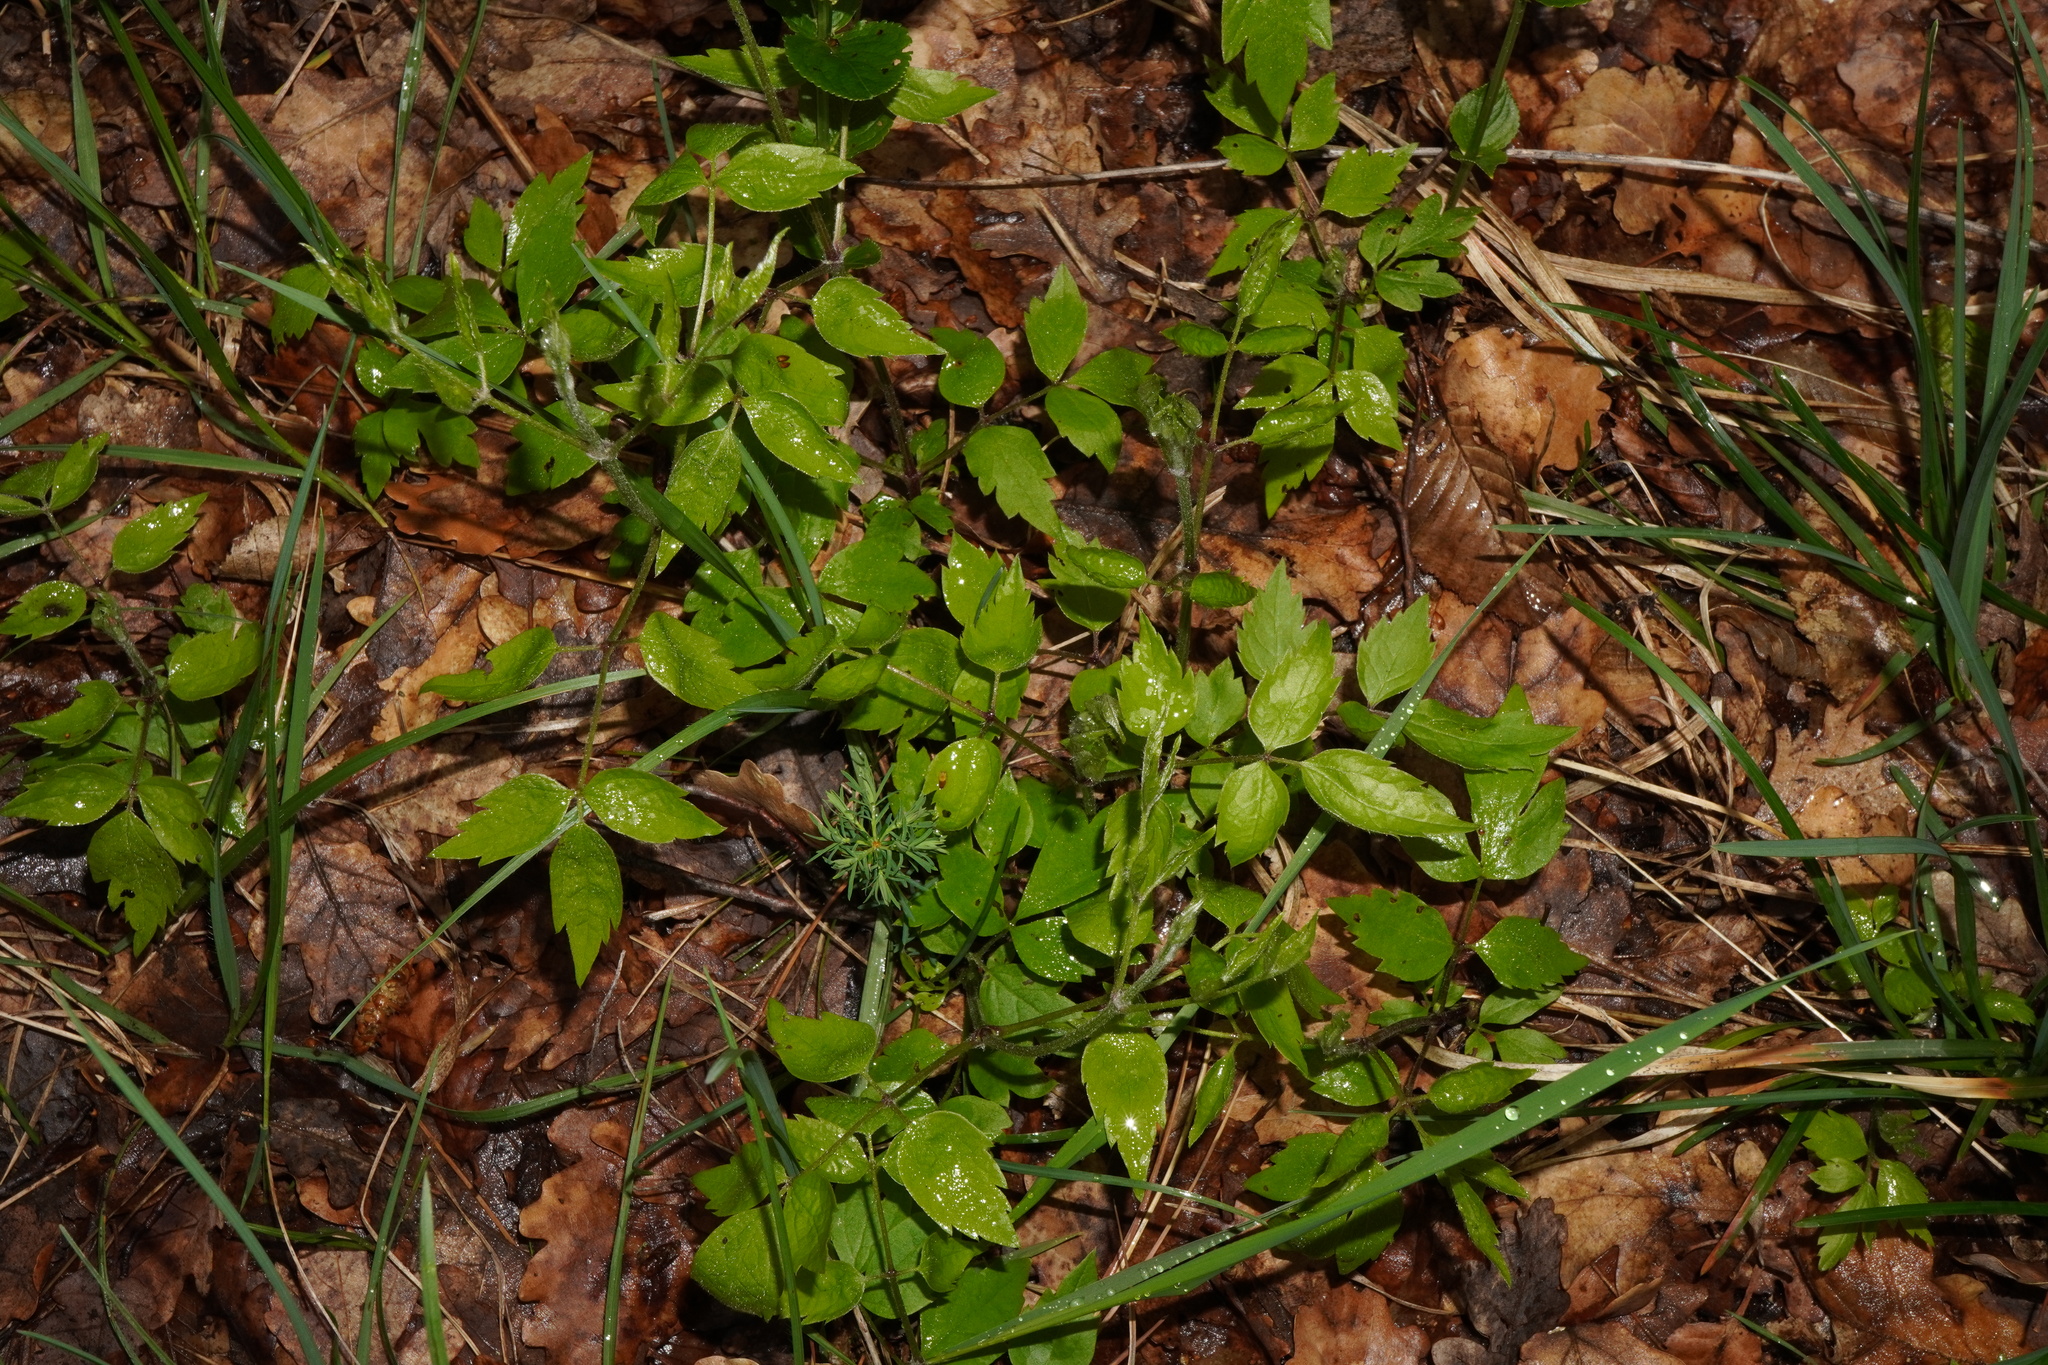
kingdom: Plantae
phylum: Tracheophyta
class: Magnoliopsida
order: Ranunculales
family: Ranunculaceae
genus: Clematis
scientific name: Clematis vitalba
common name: Evergreen clematis
